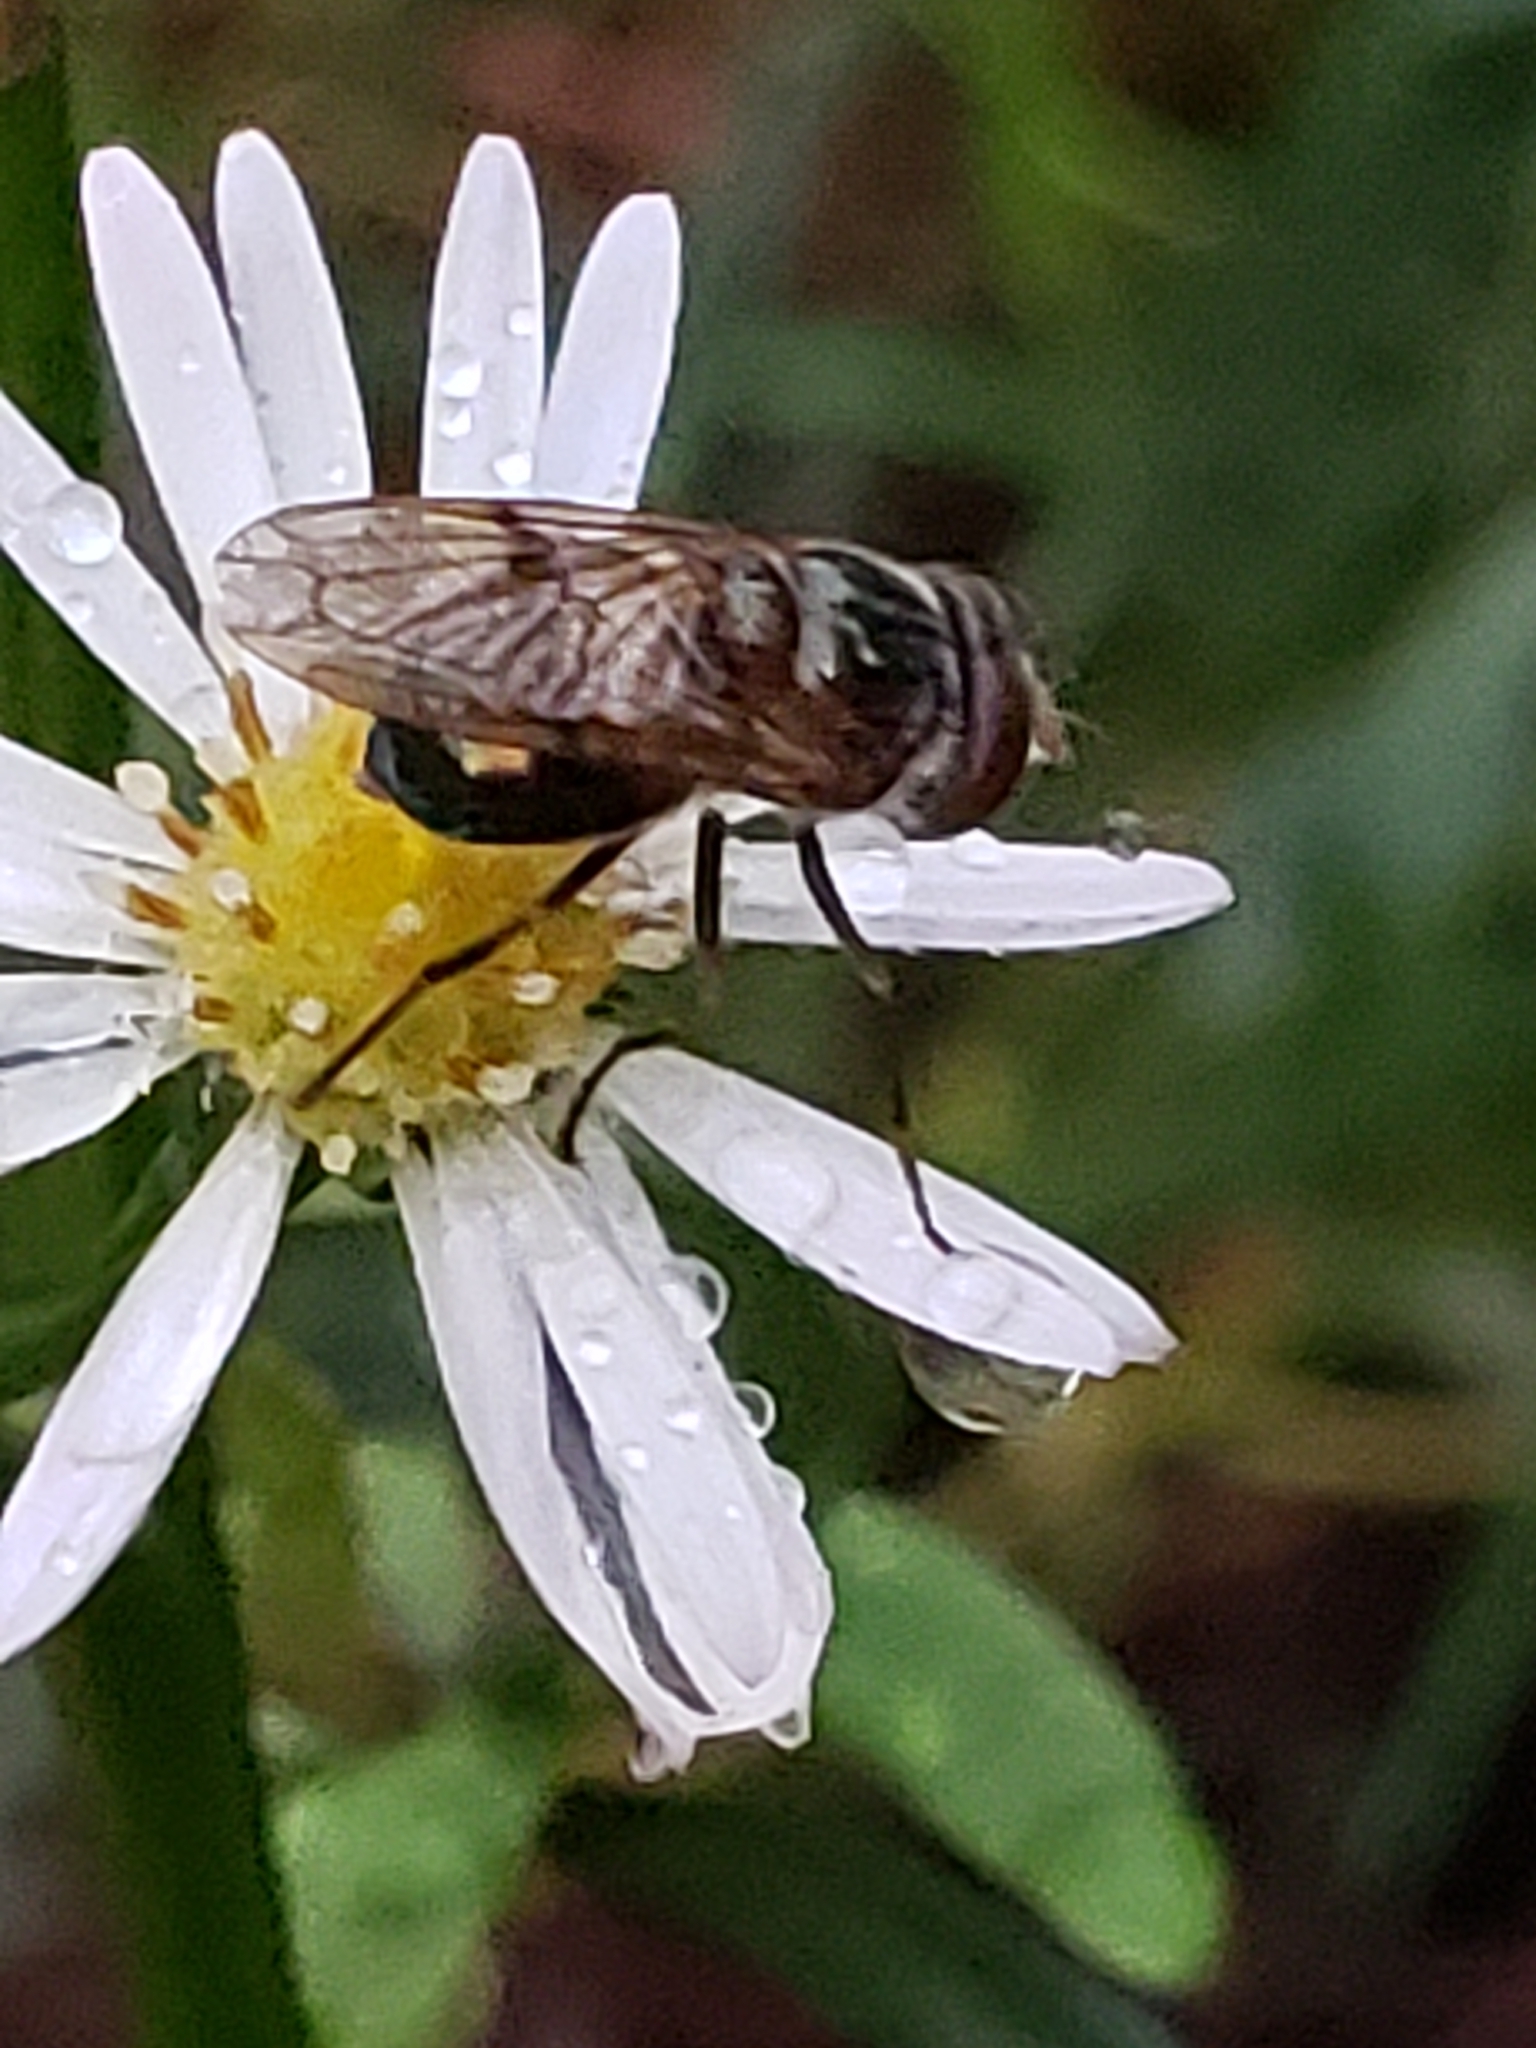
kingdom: Animalia
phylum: Arthropoda
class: Insecta
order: Diptera
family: Syrphidae
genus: Copestylum
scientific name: Copestylum vesicularium
